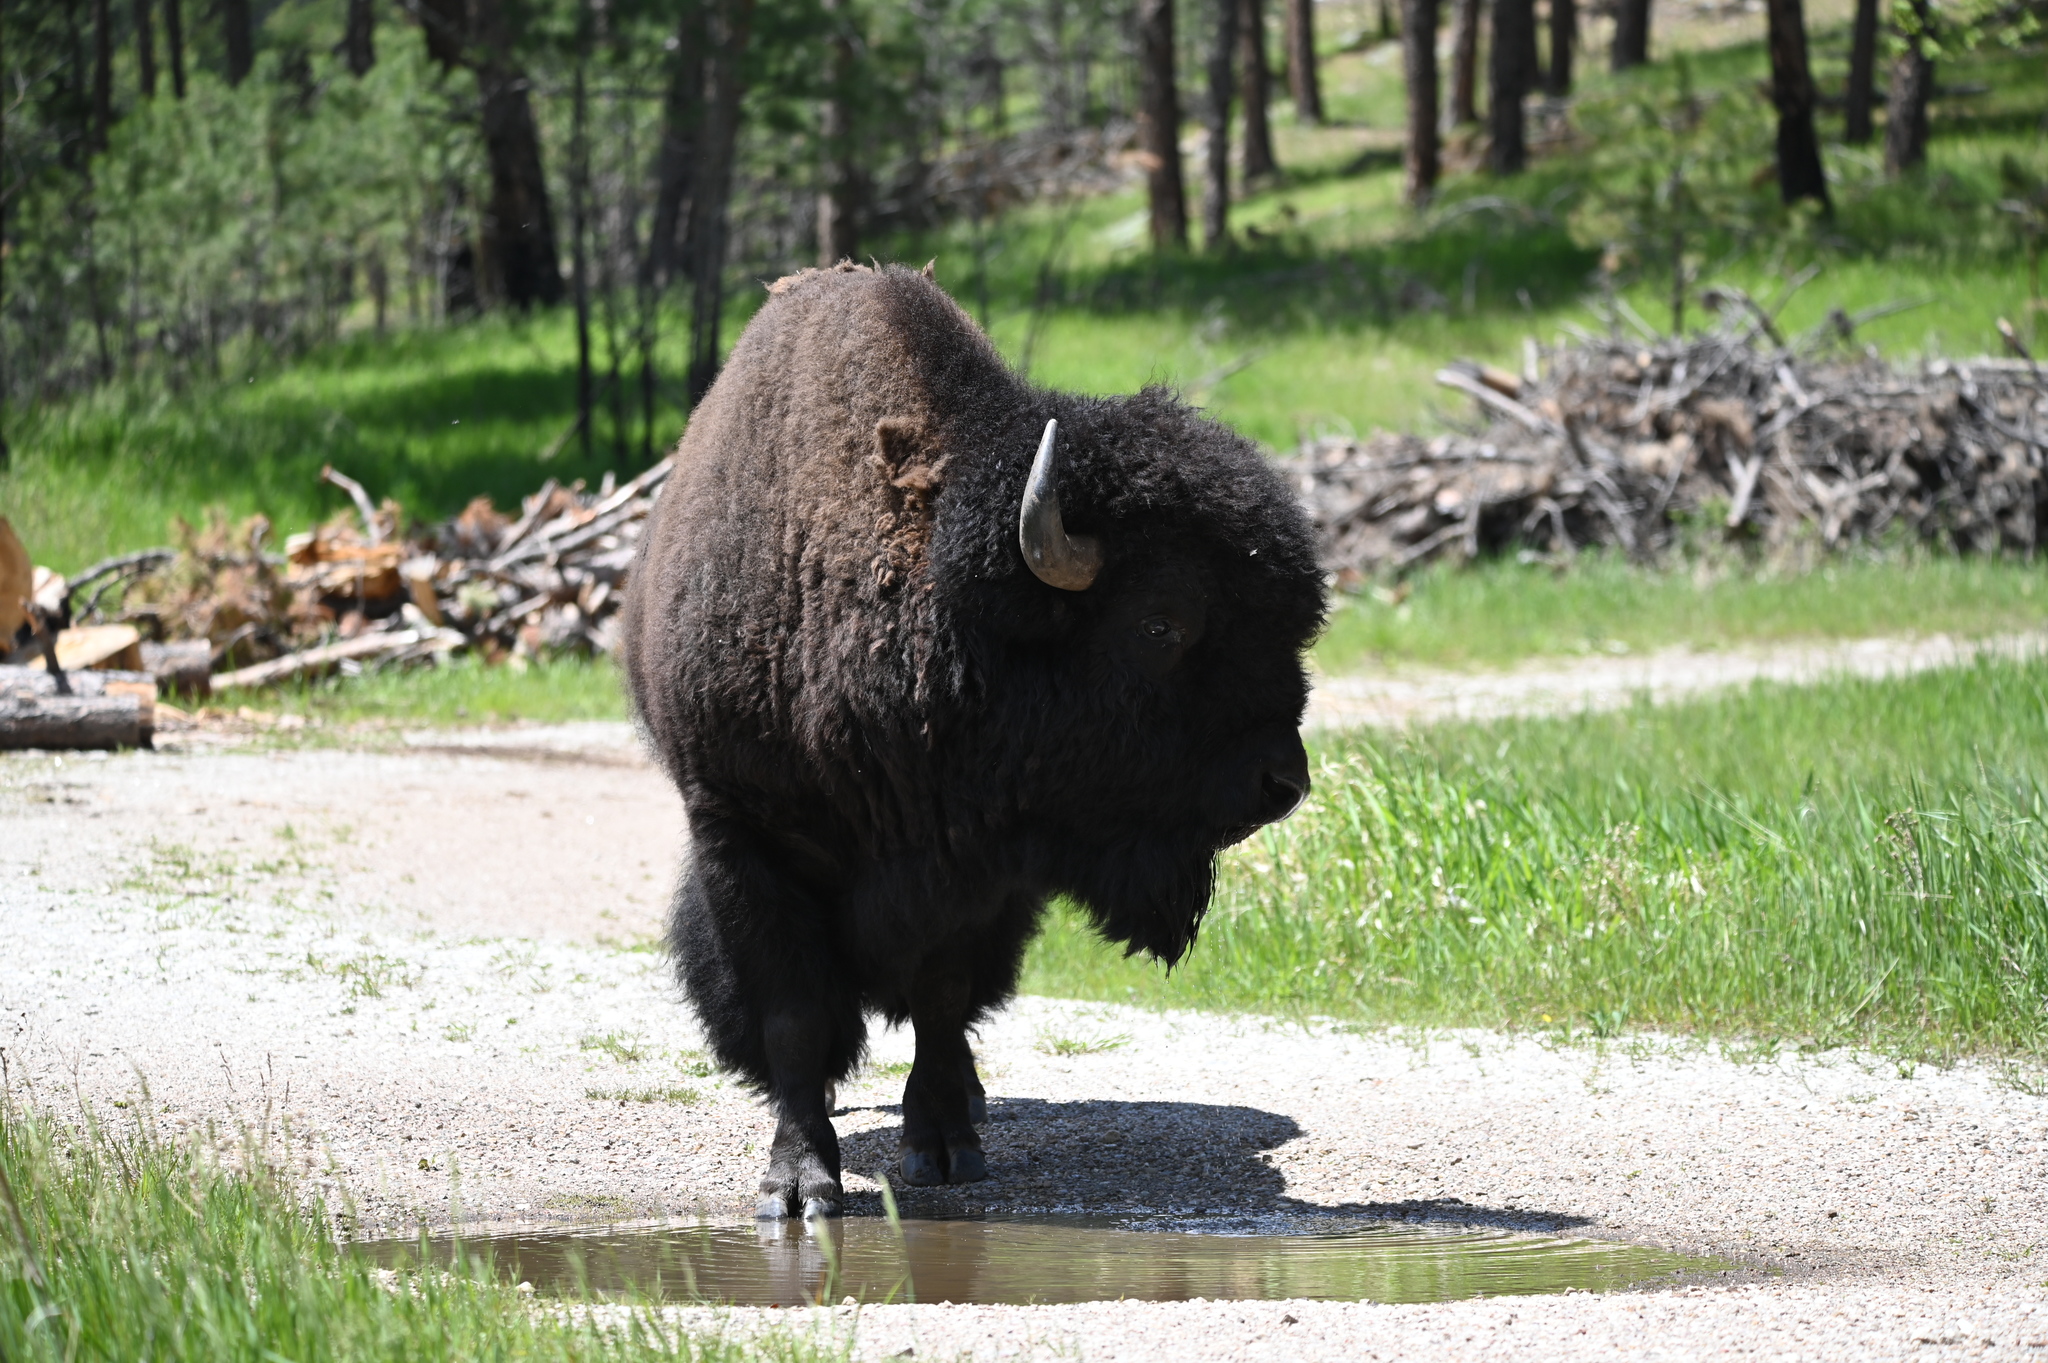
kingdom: Animalia
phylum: Chordata
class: Mammalia
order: Artiodactyla
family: Bovidae
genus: Bison
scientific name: Bison bison
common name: American bison
